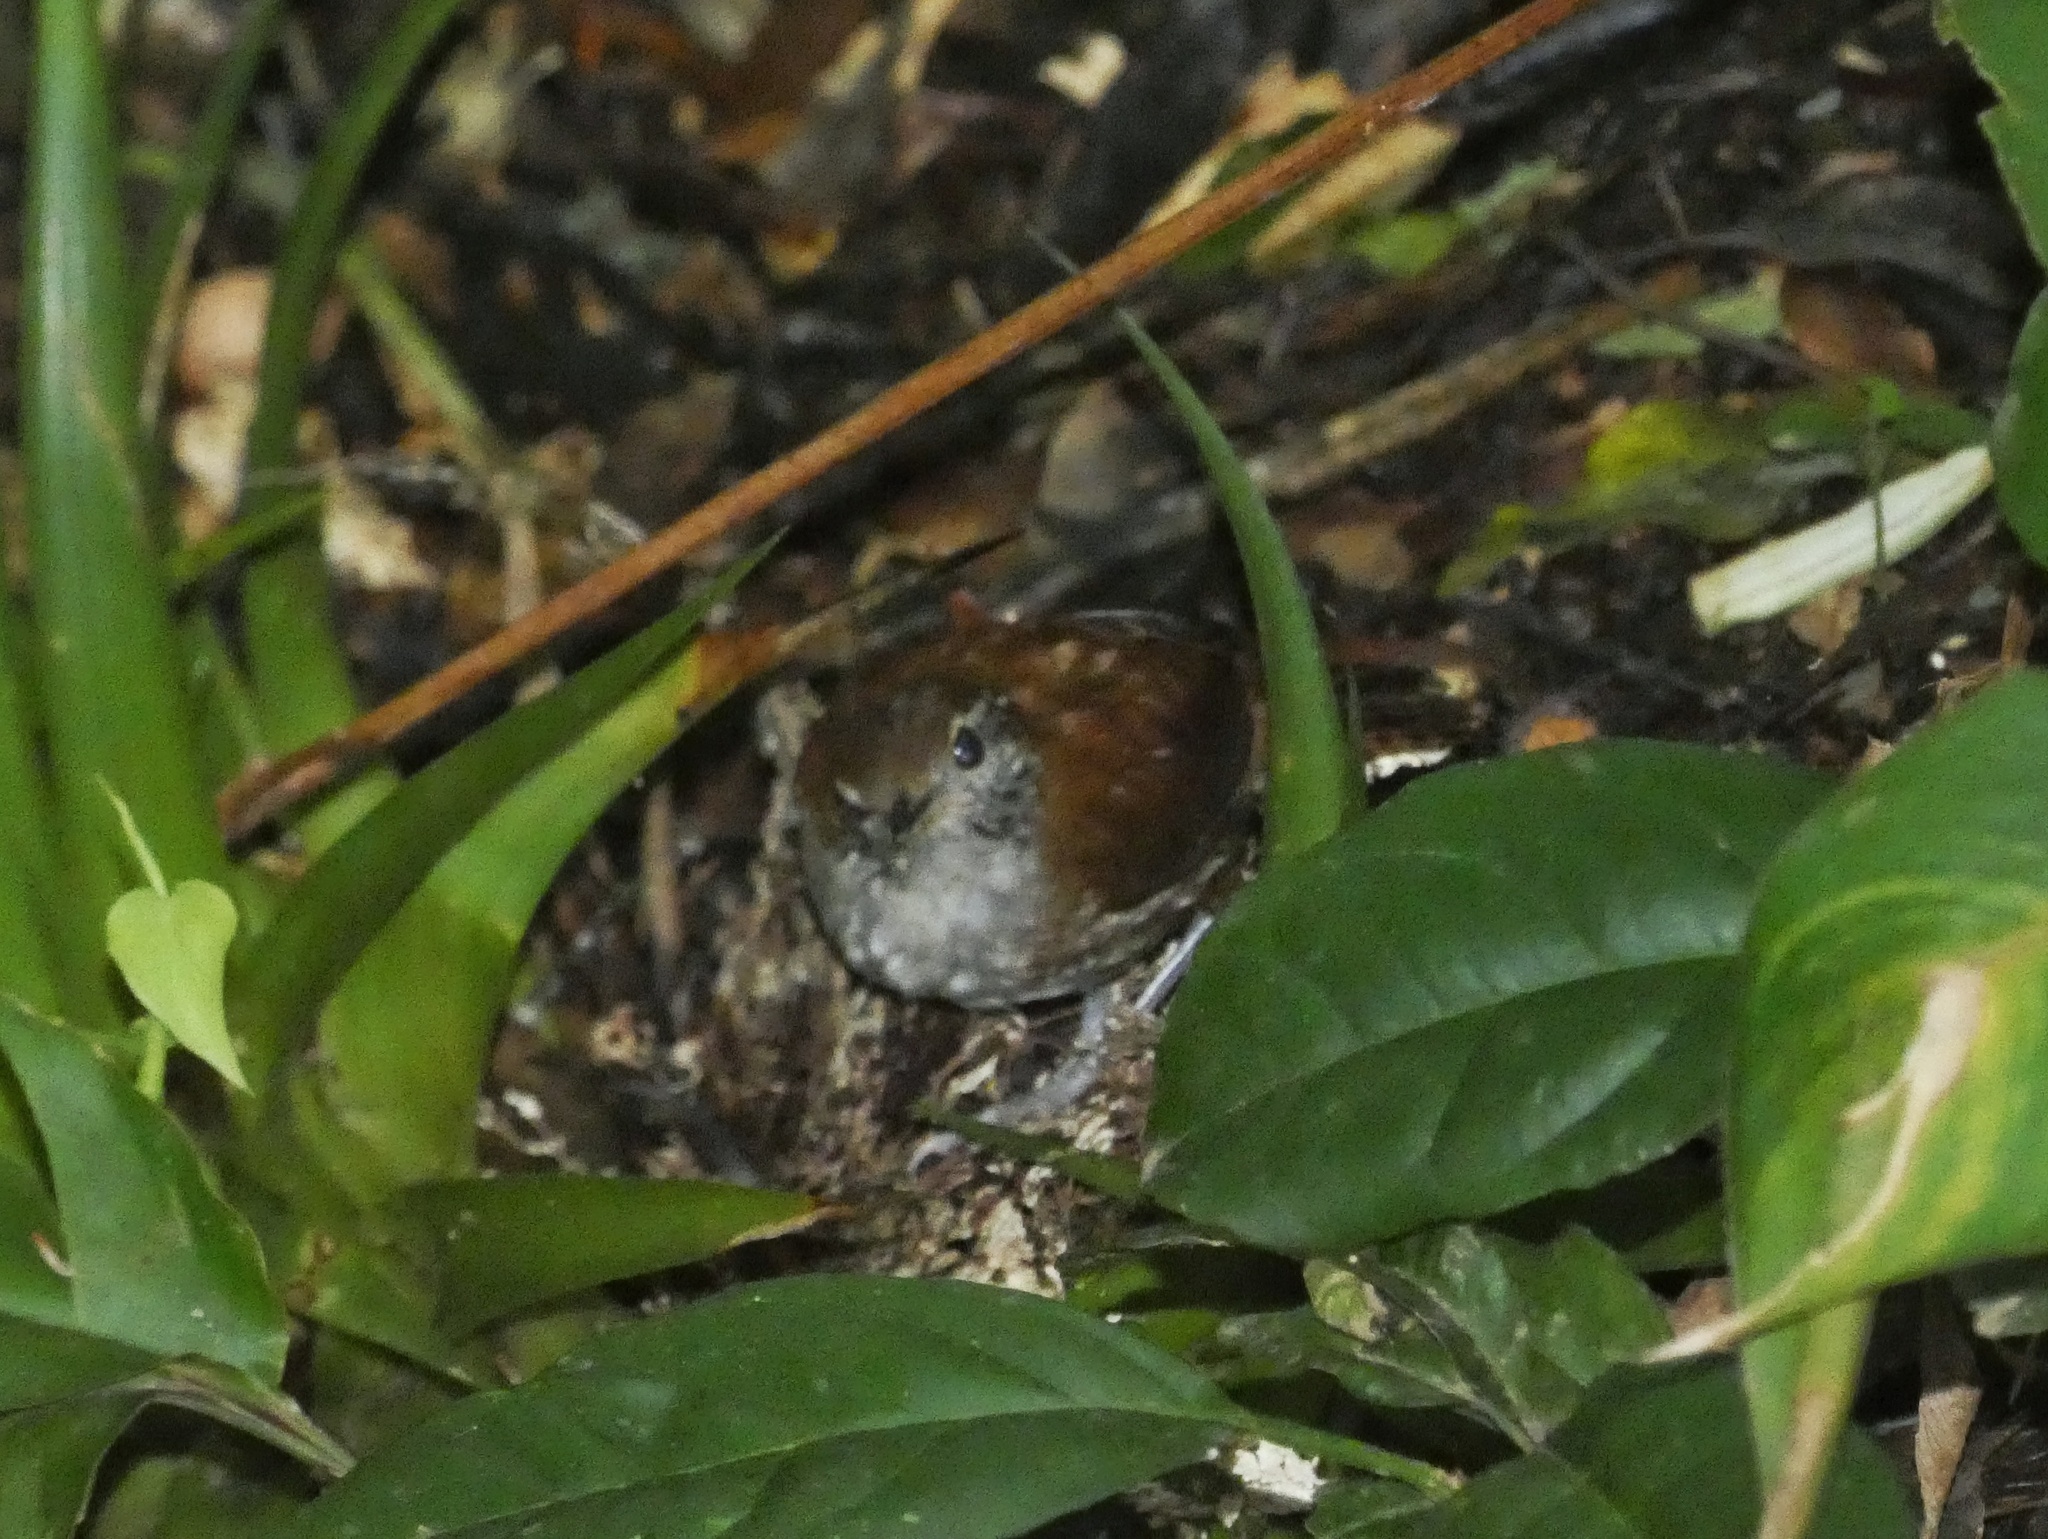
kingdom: Animalia
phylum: Chordata
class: Aves
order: Passeriformes
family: Troglodytidae
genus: Henicorhina
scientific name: Henicorhina leucophrys
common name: Gray-breasted wood-wren
